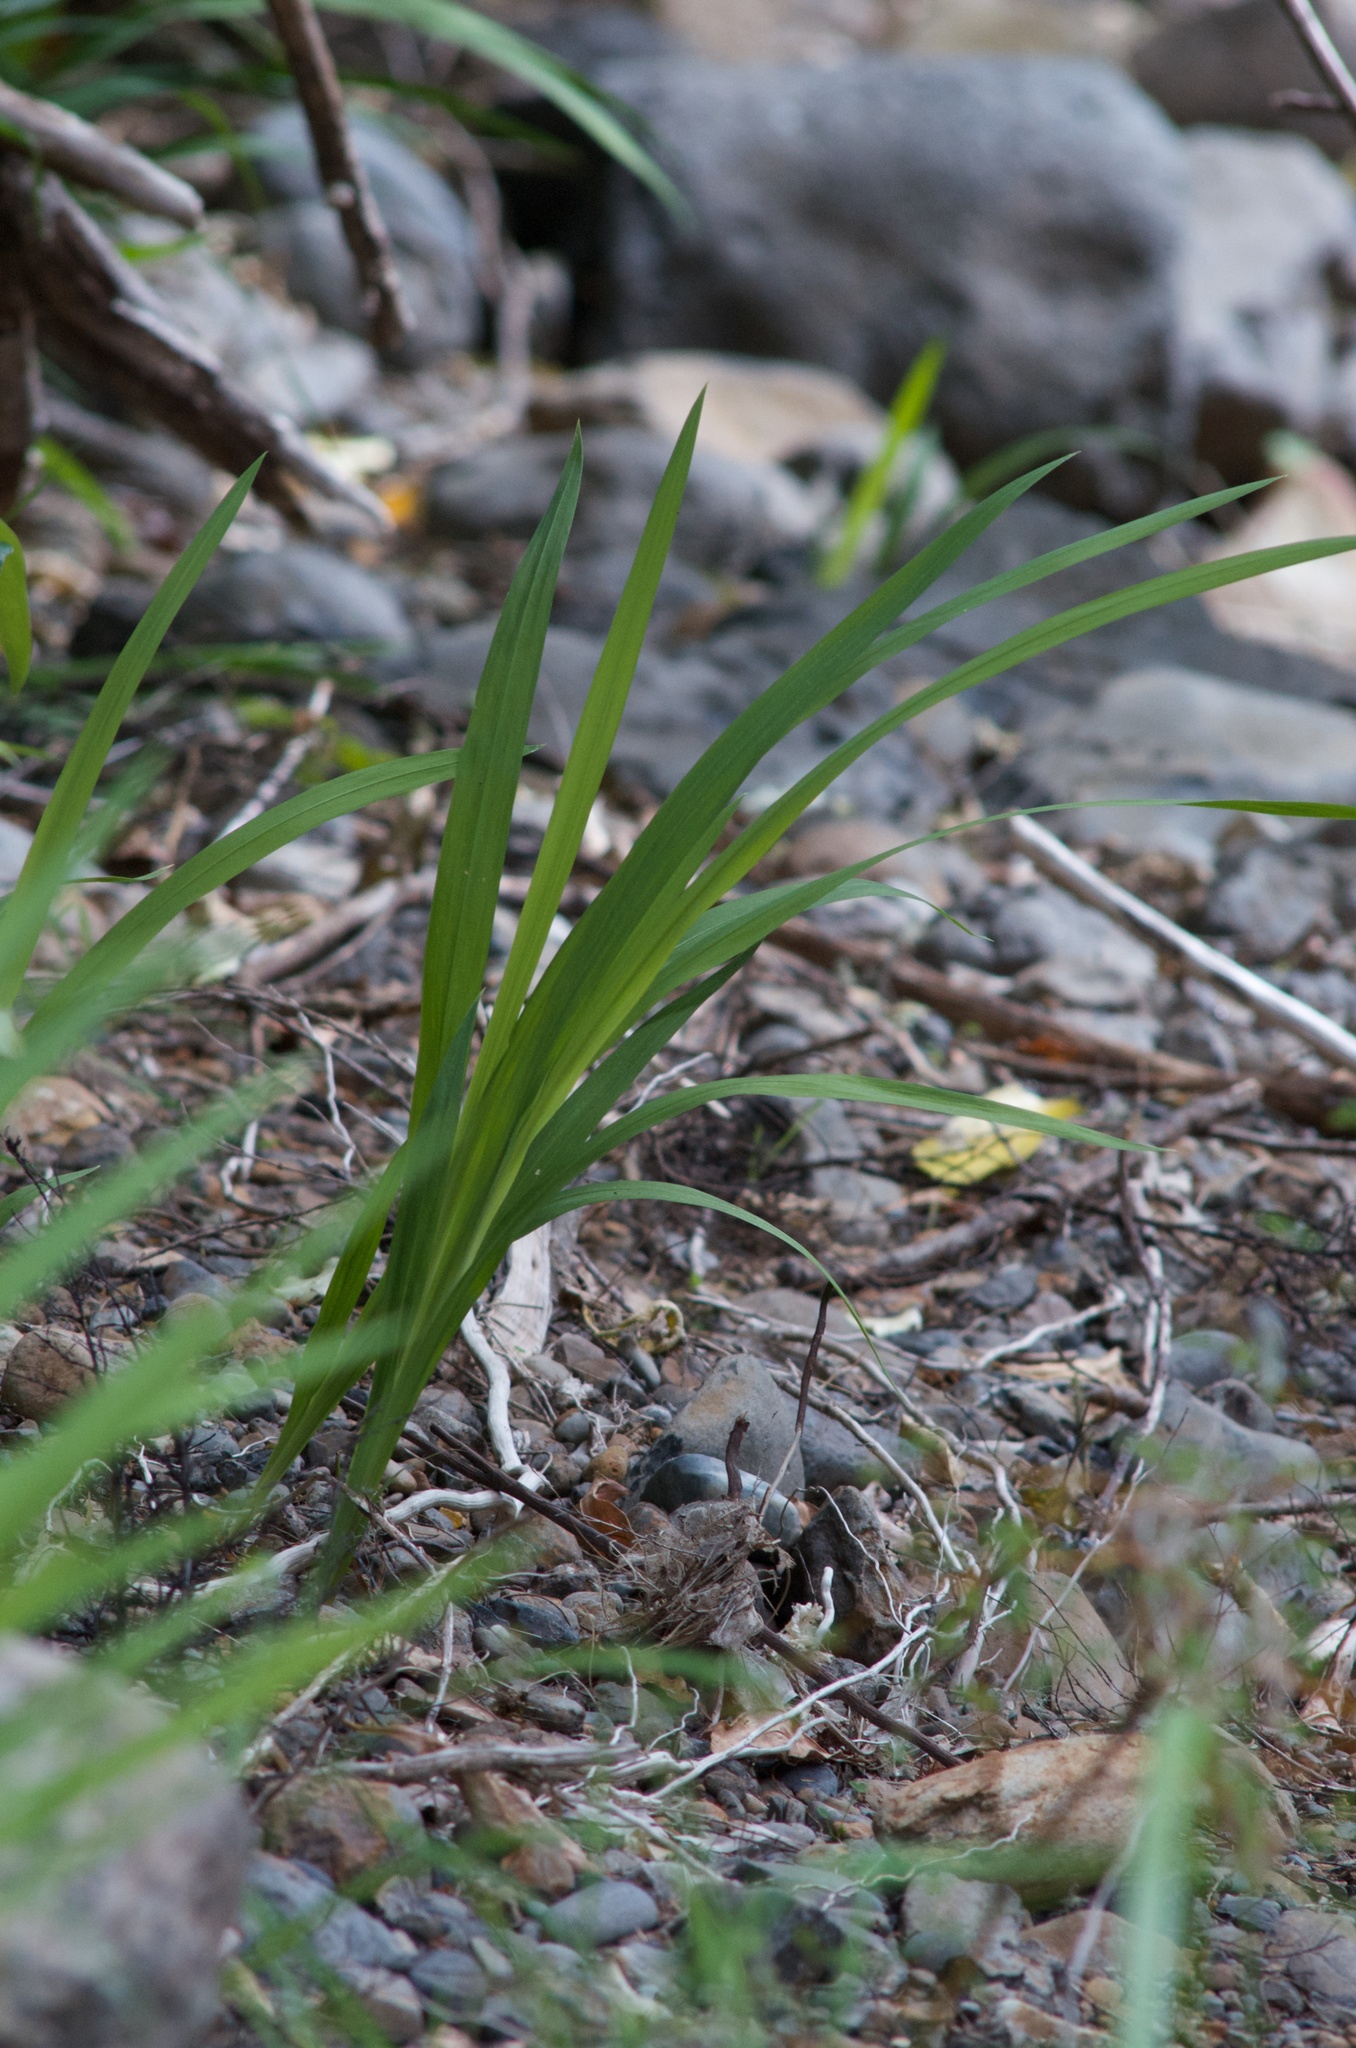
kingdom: Plantae
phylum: Tracheophyta
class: Liliopsida
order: Asparagales
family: Iridaceae
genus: Crocosmia
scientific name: Crocosmia crocosmiiflora
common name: Montbretia
